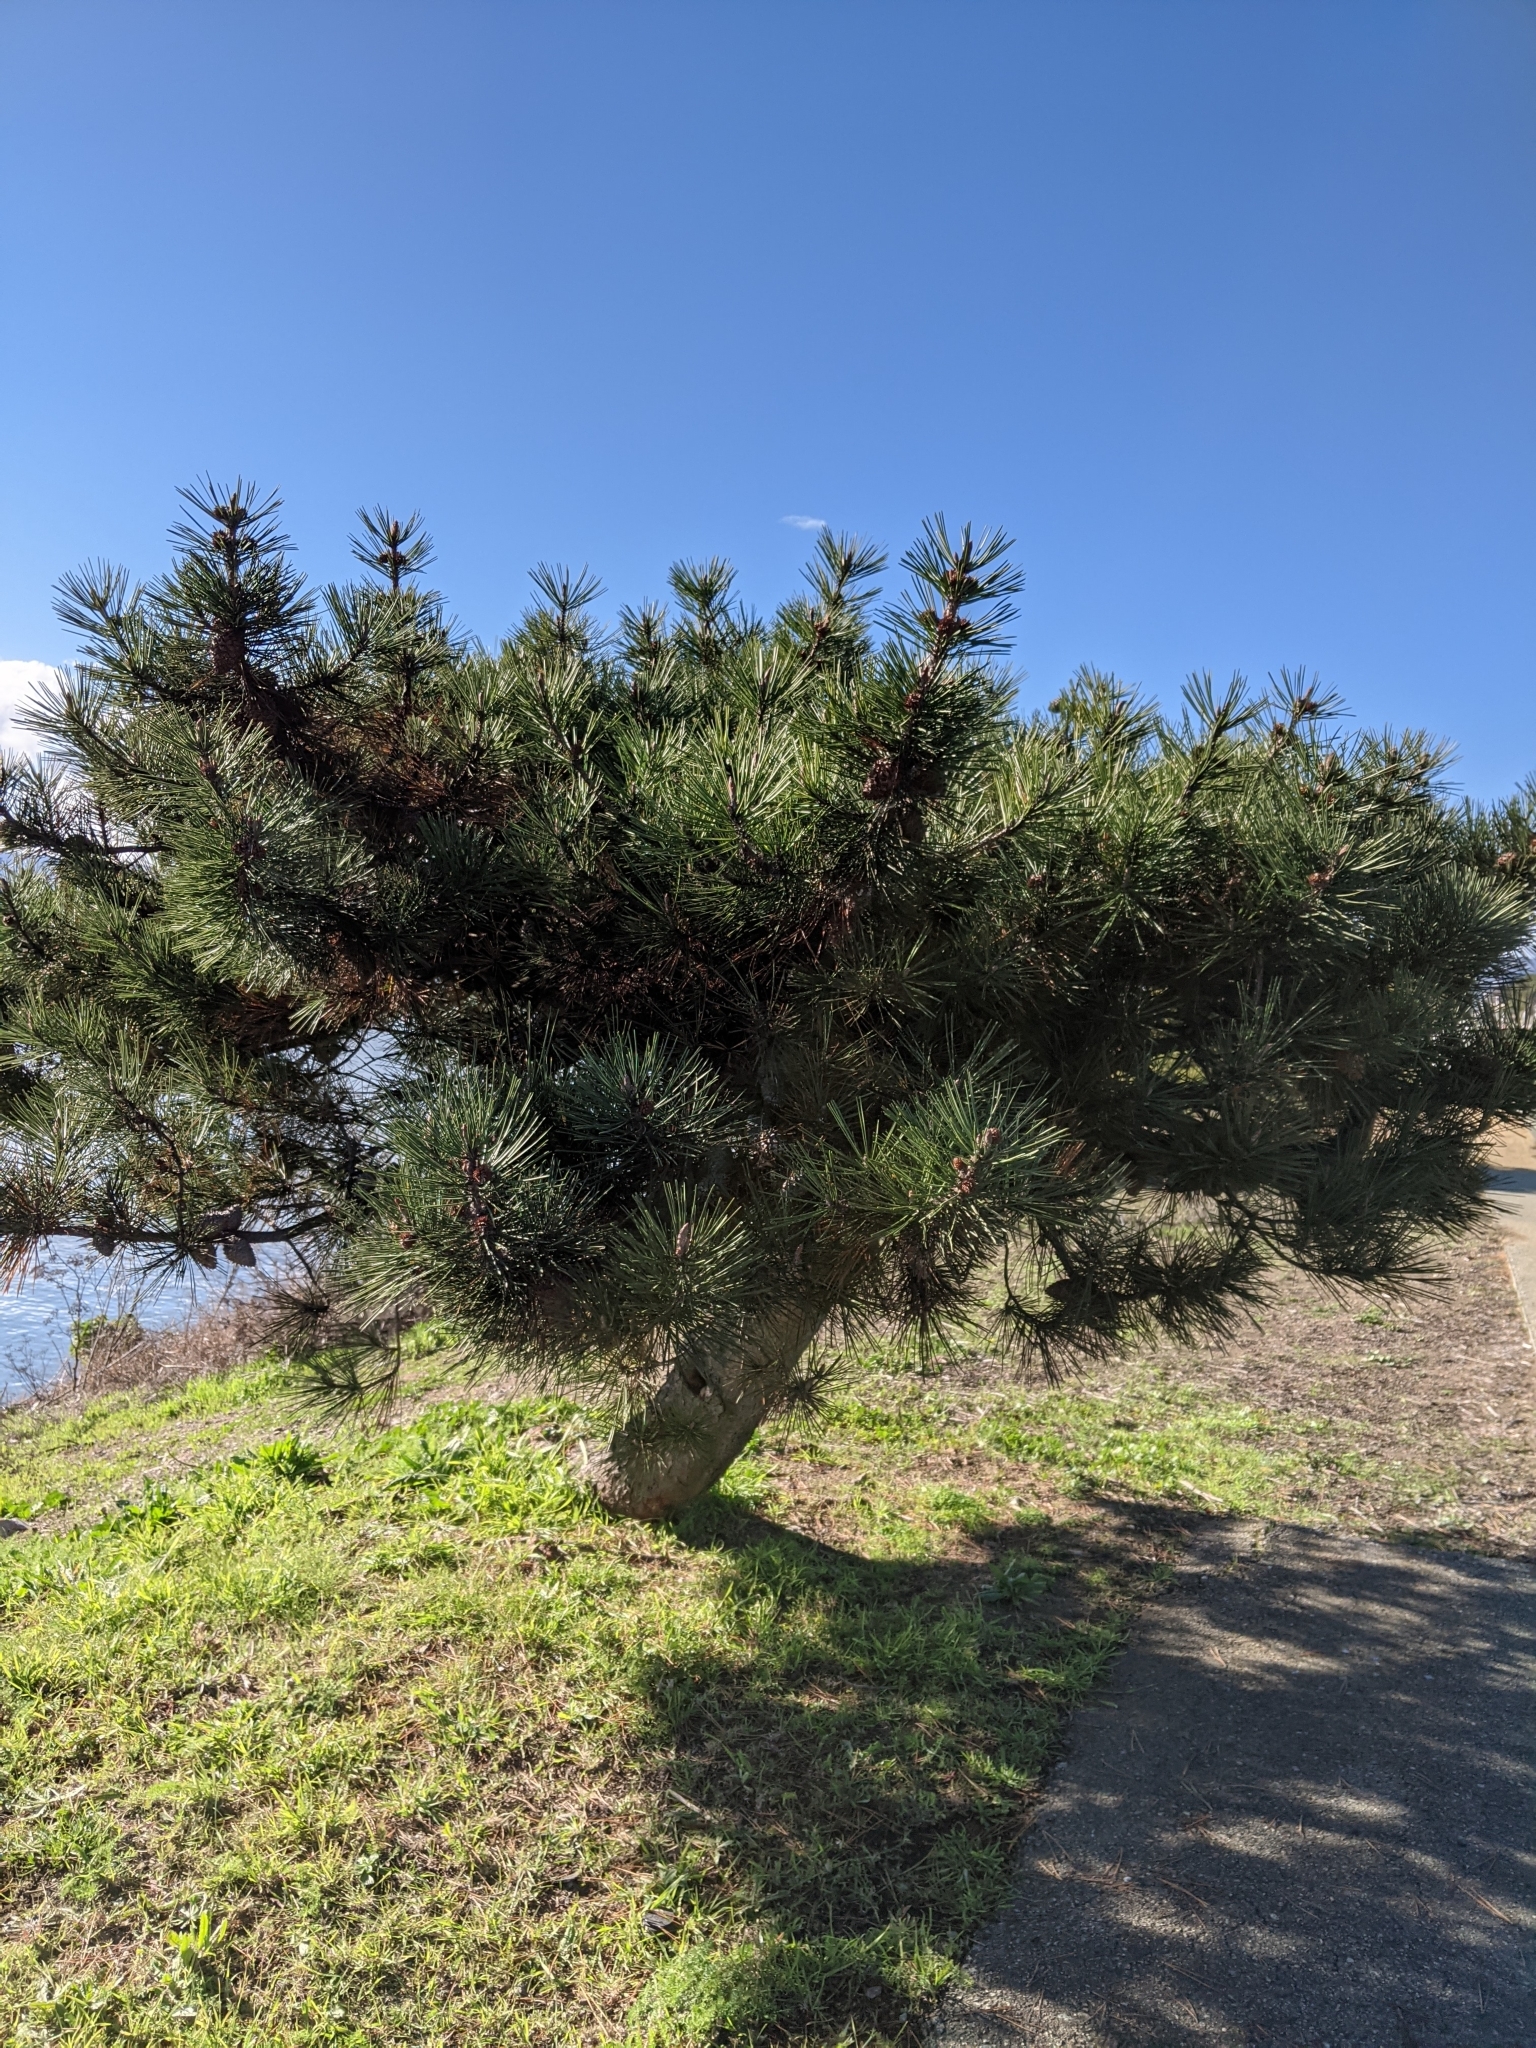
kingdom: Plantae
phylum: Tracheophyta
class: Pinopsida
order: Pinales
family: Pinaceae
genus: Pinus
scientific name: Pinus radiata
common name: Monterey pine
